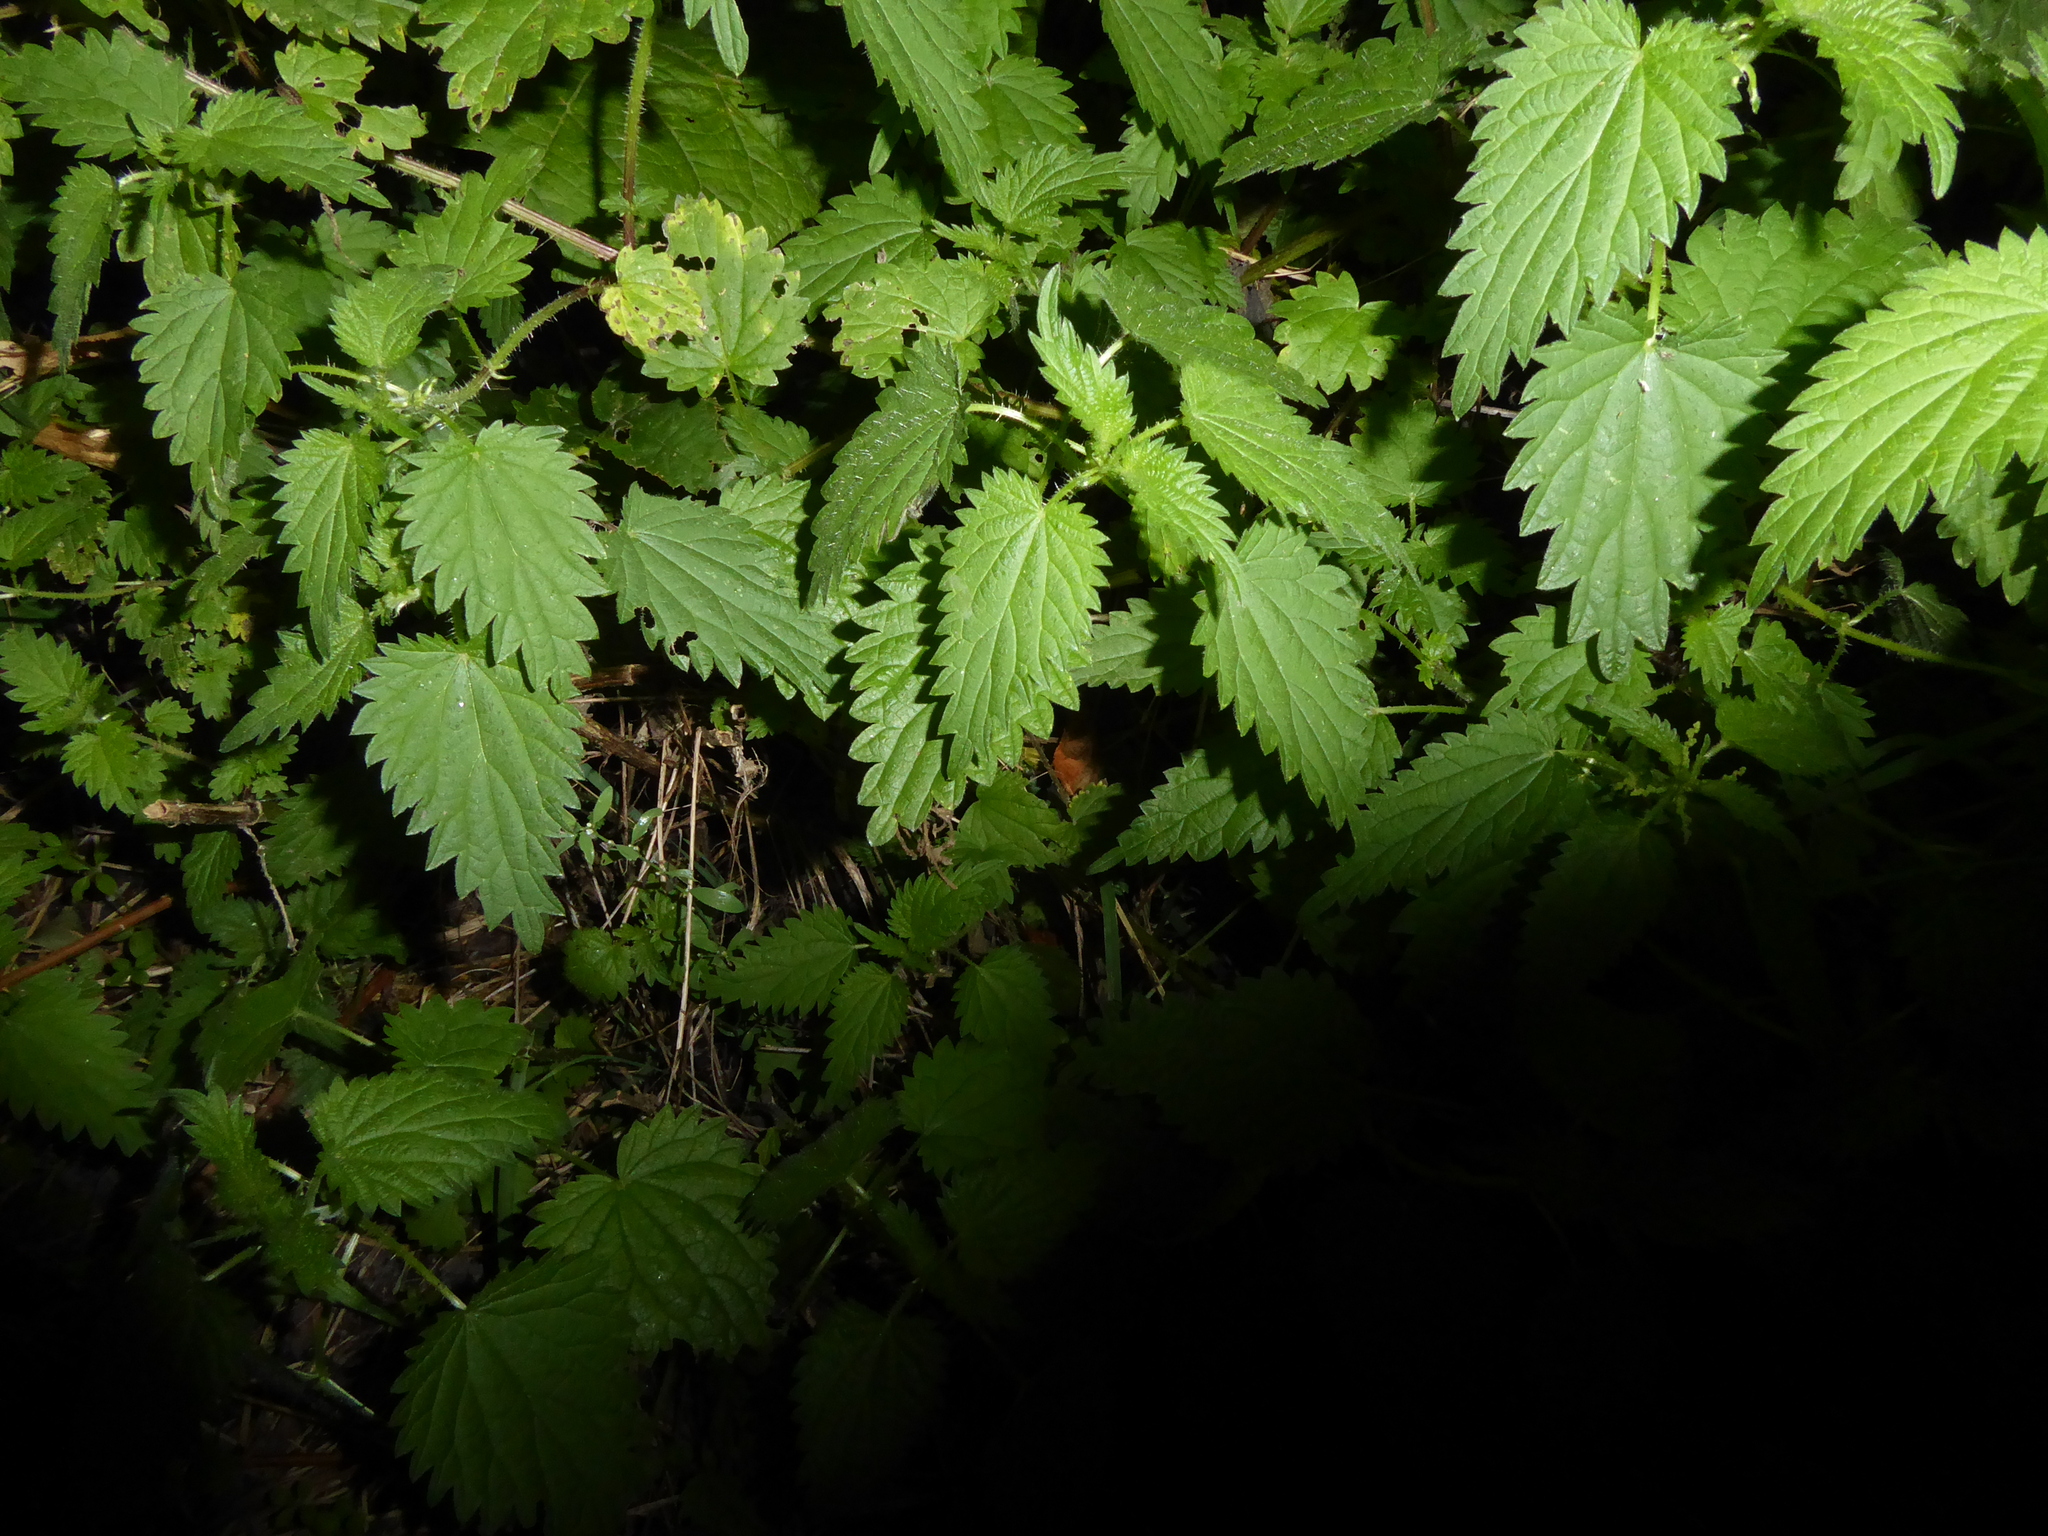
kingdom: Plantae
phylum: Tracheophyta
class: Magnoliopsida
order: Rosales
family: Urticaceae
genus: Urtica
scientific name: Urtica dioica
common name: Common nettle
